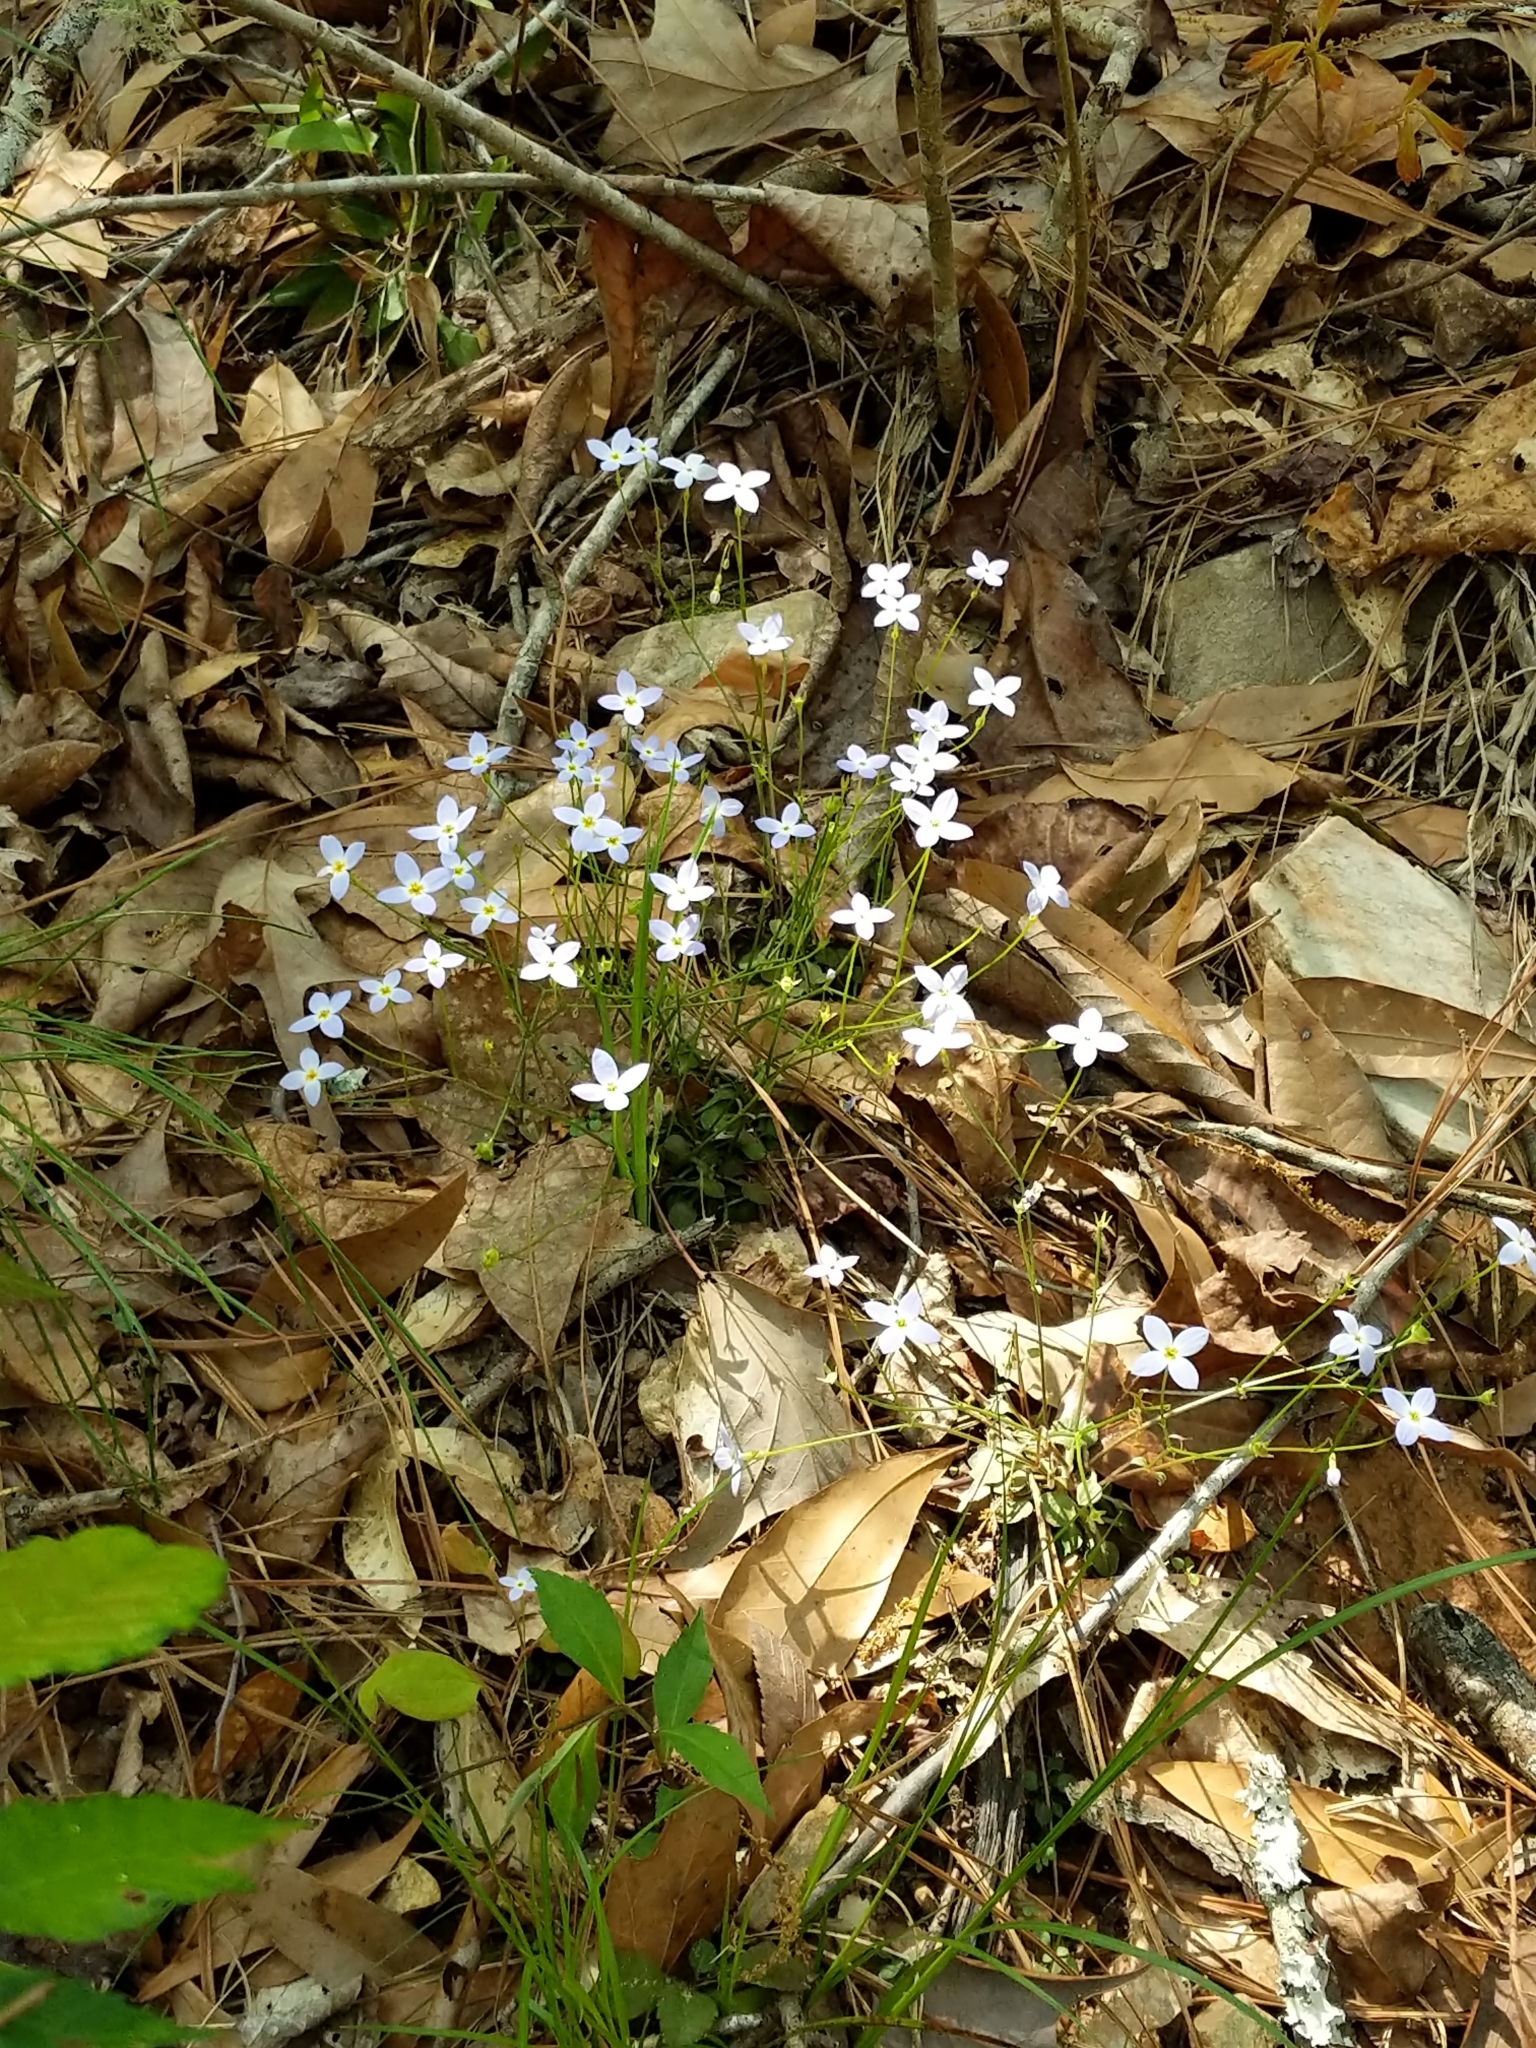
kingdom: Plantae
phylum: Tracheophyta
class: Magnoliopsida
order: Gentianales
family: Rubiaceae
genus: Houstonia
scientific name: Houstonia caerulea
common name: Bluets
